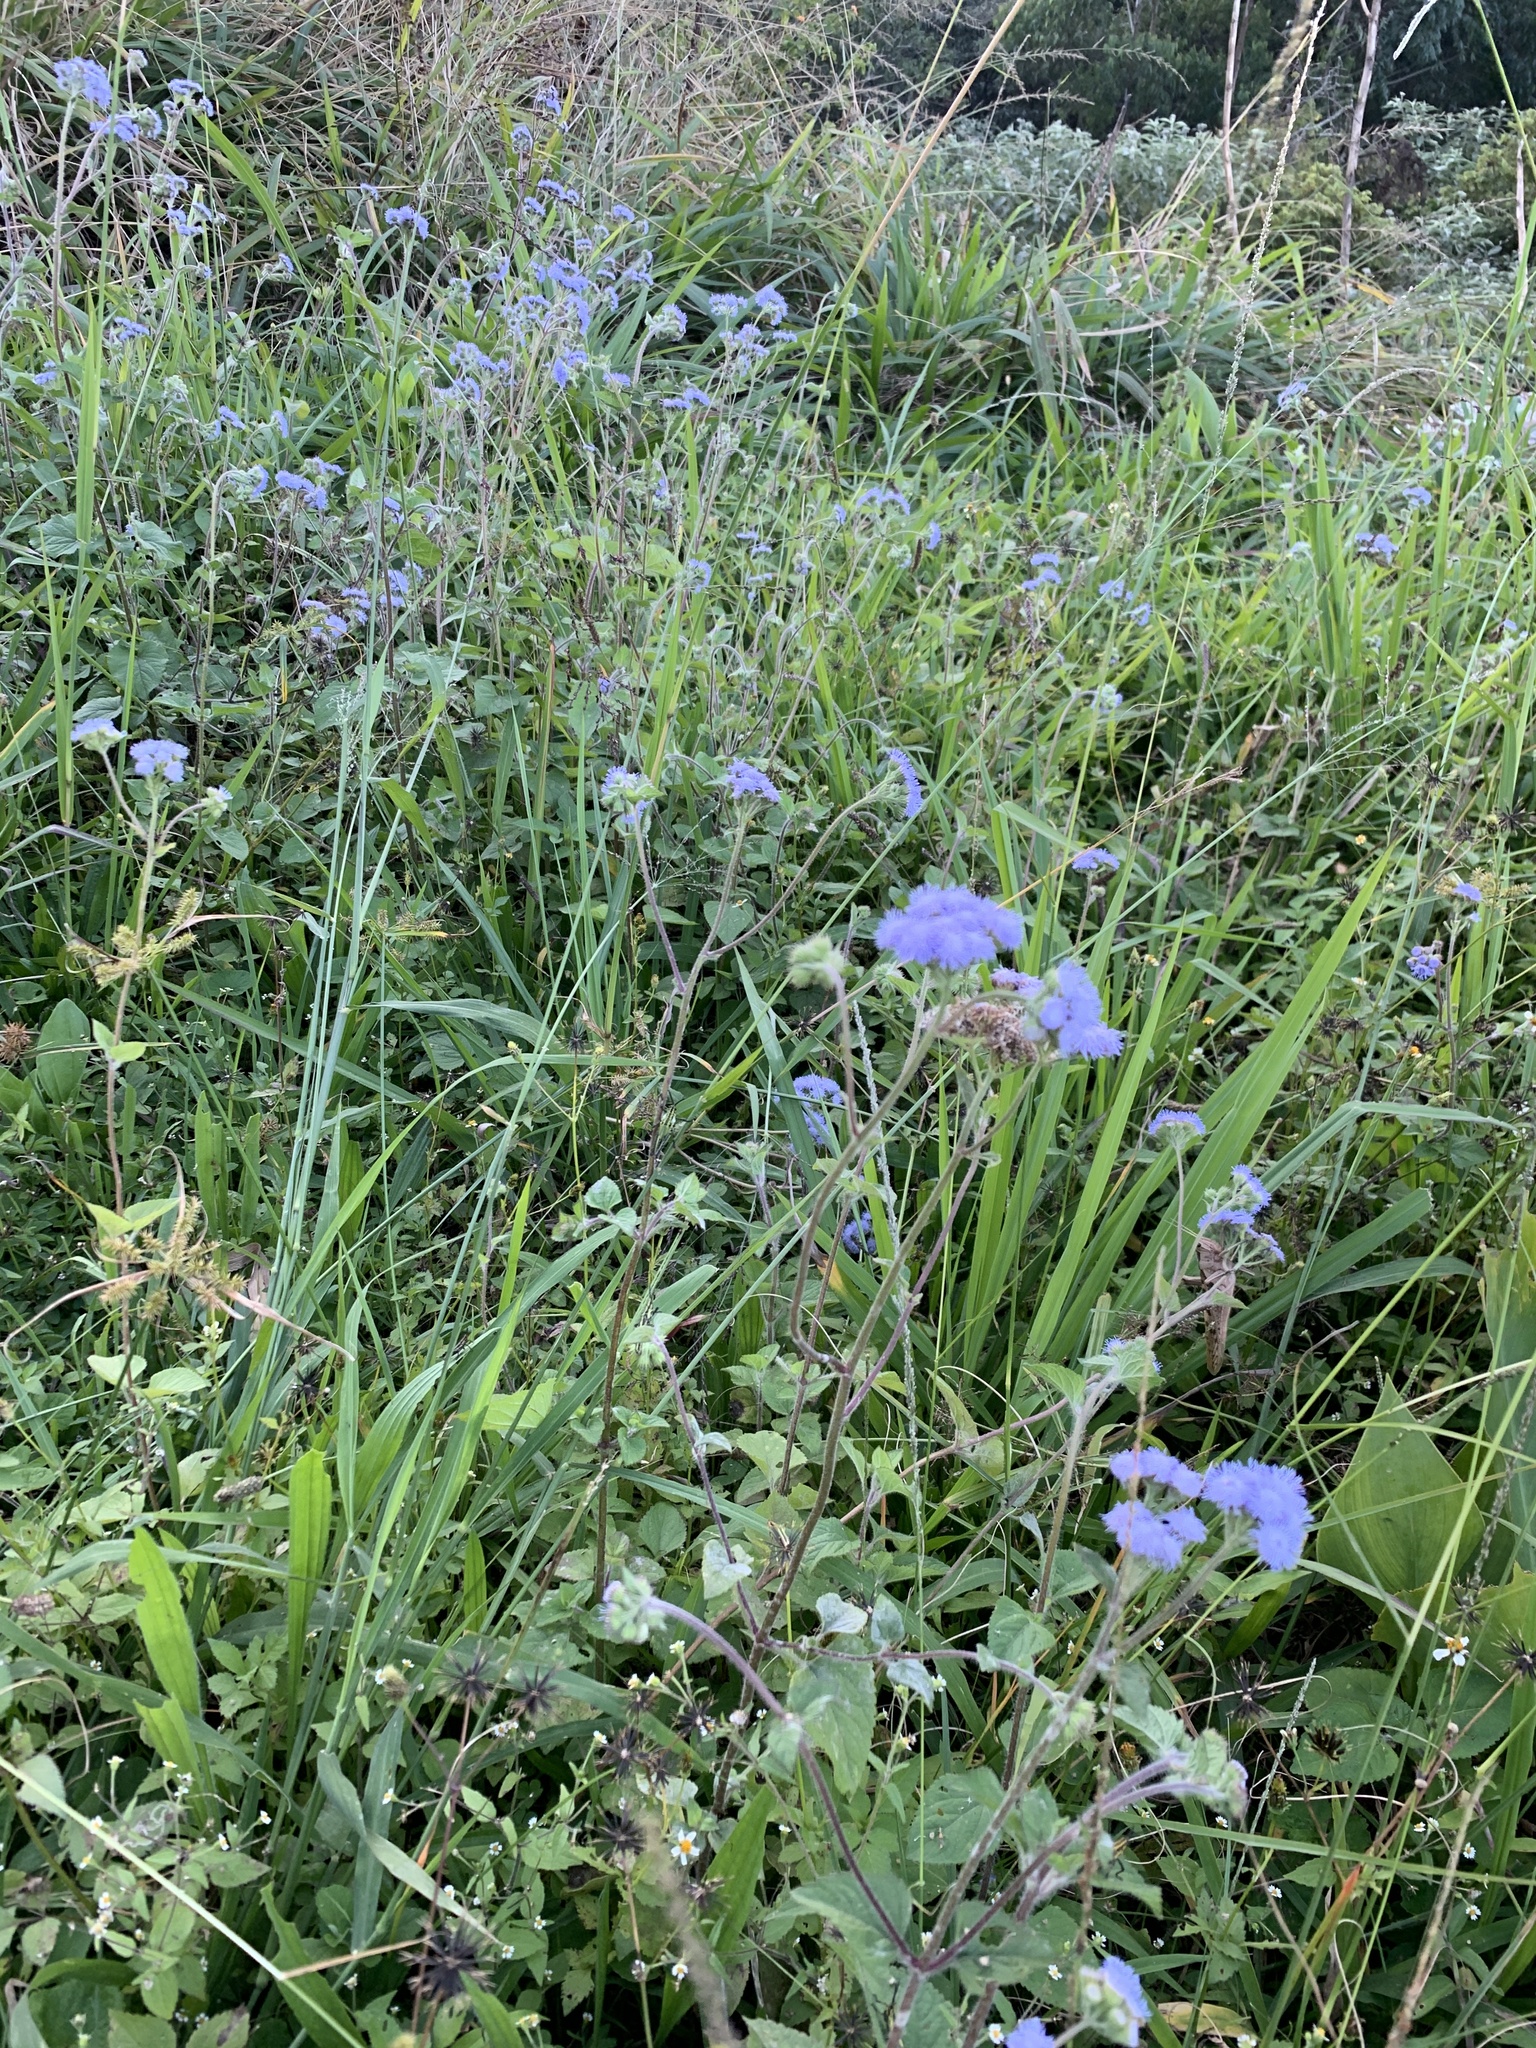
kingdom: Plantae
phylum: Tracheophyta
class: Magnoliopsida
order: Asterales
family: Asteraceae
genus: Ageratum
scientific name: Ageratum houstonianum
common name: Bluemink
